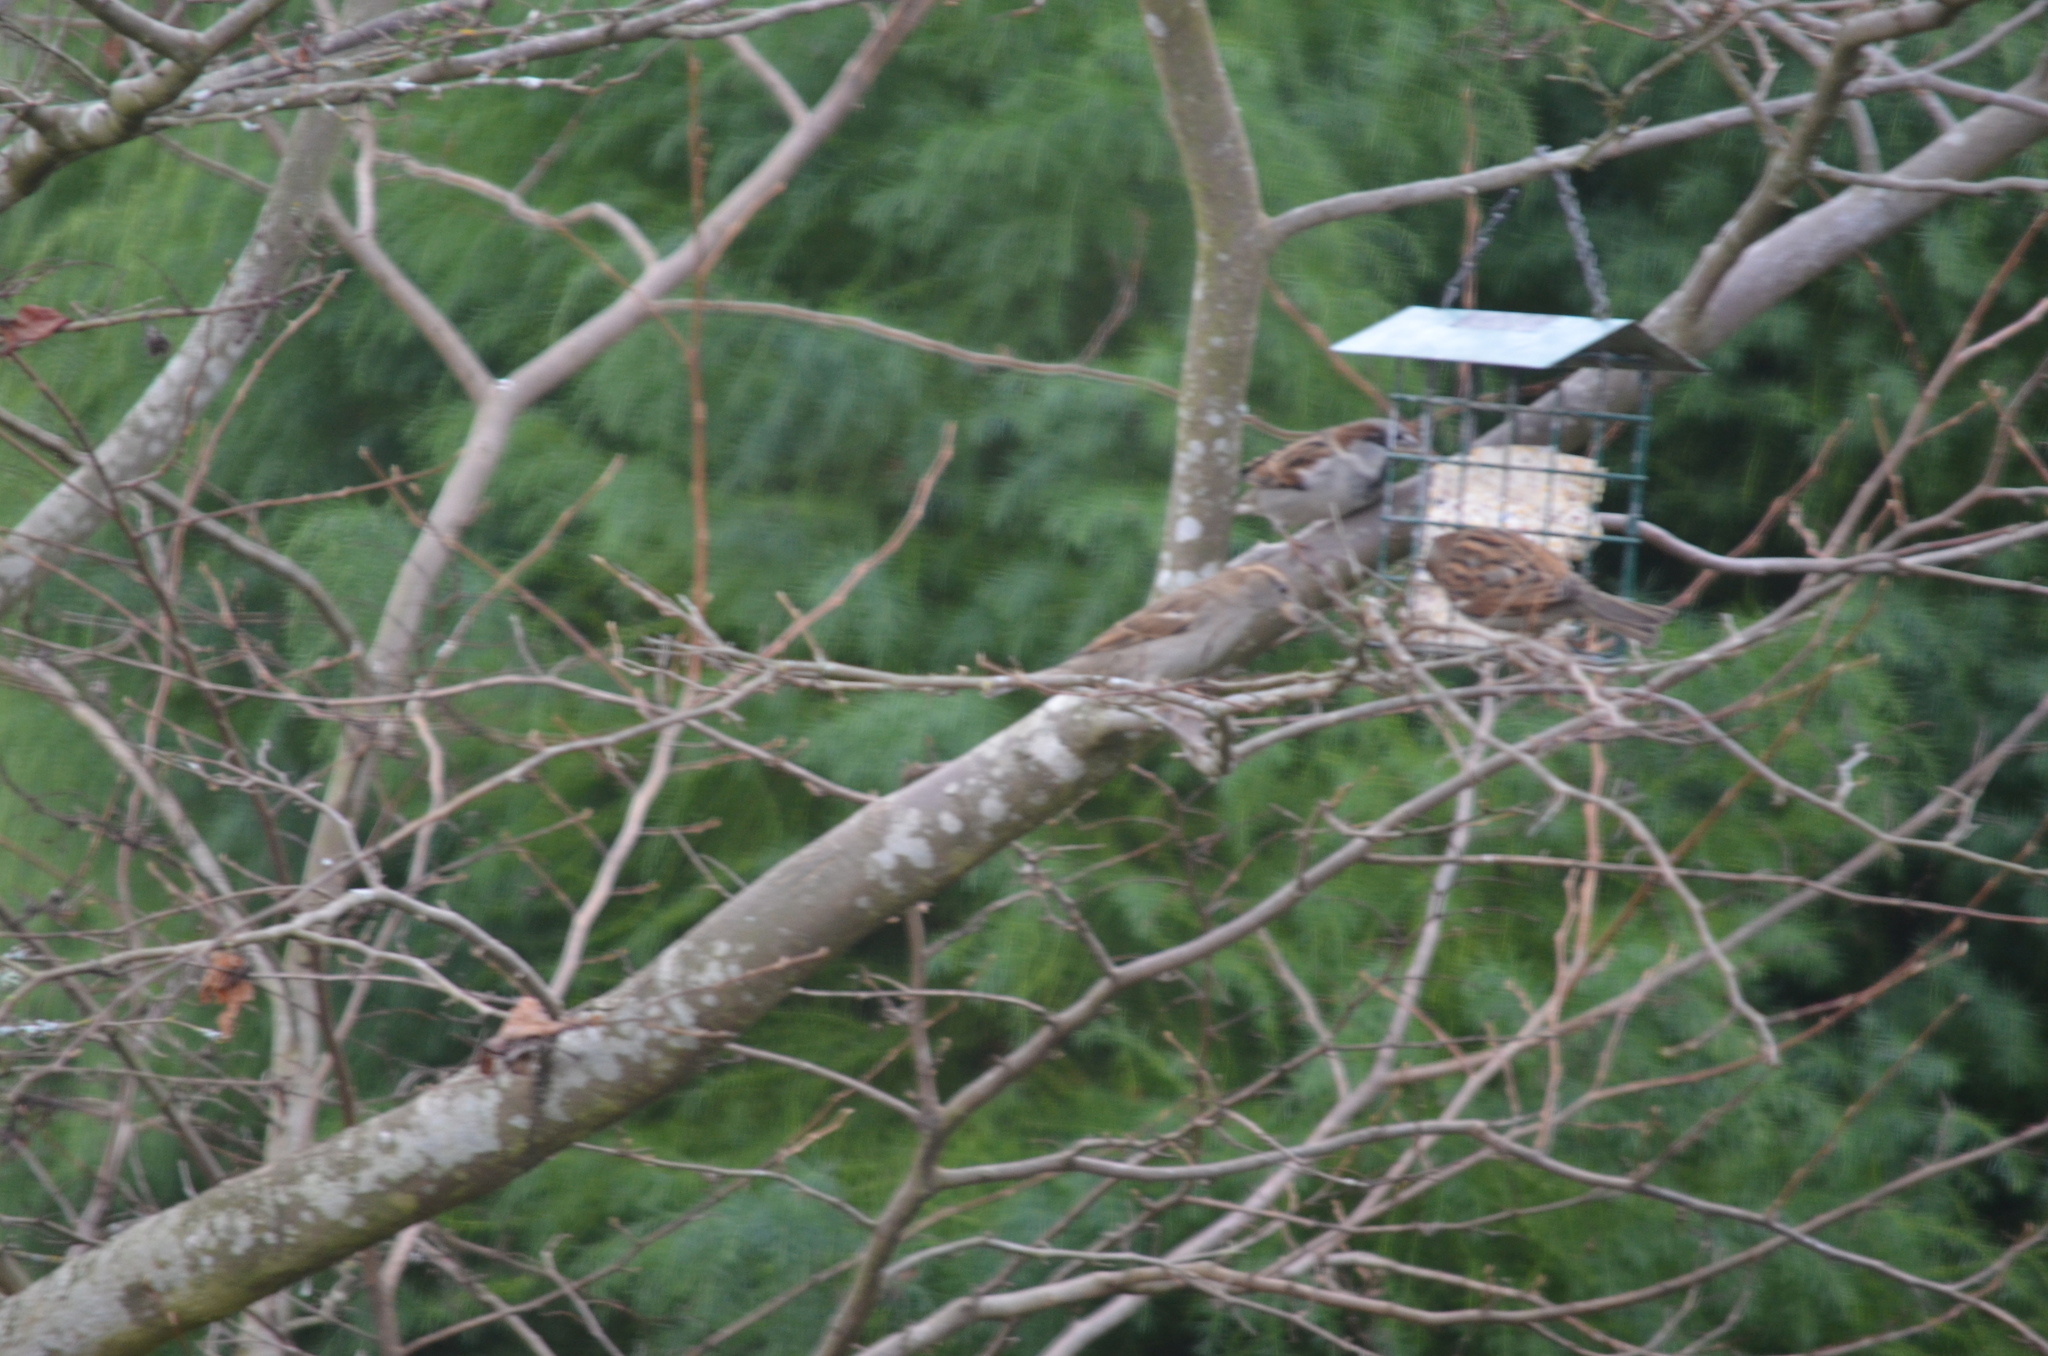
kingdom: Animalia
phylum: Chordata
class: Aves
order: Passeriformes
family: Passeridae
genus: Passer
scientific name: Passer domesticus
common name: House sparrow
